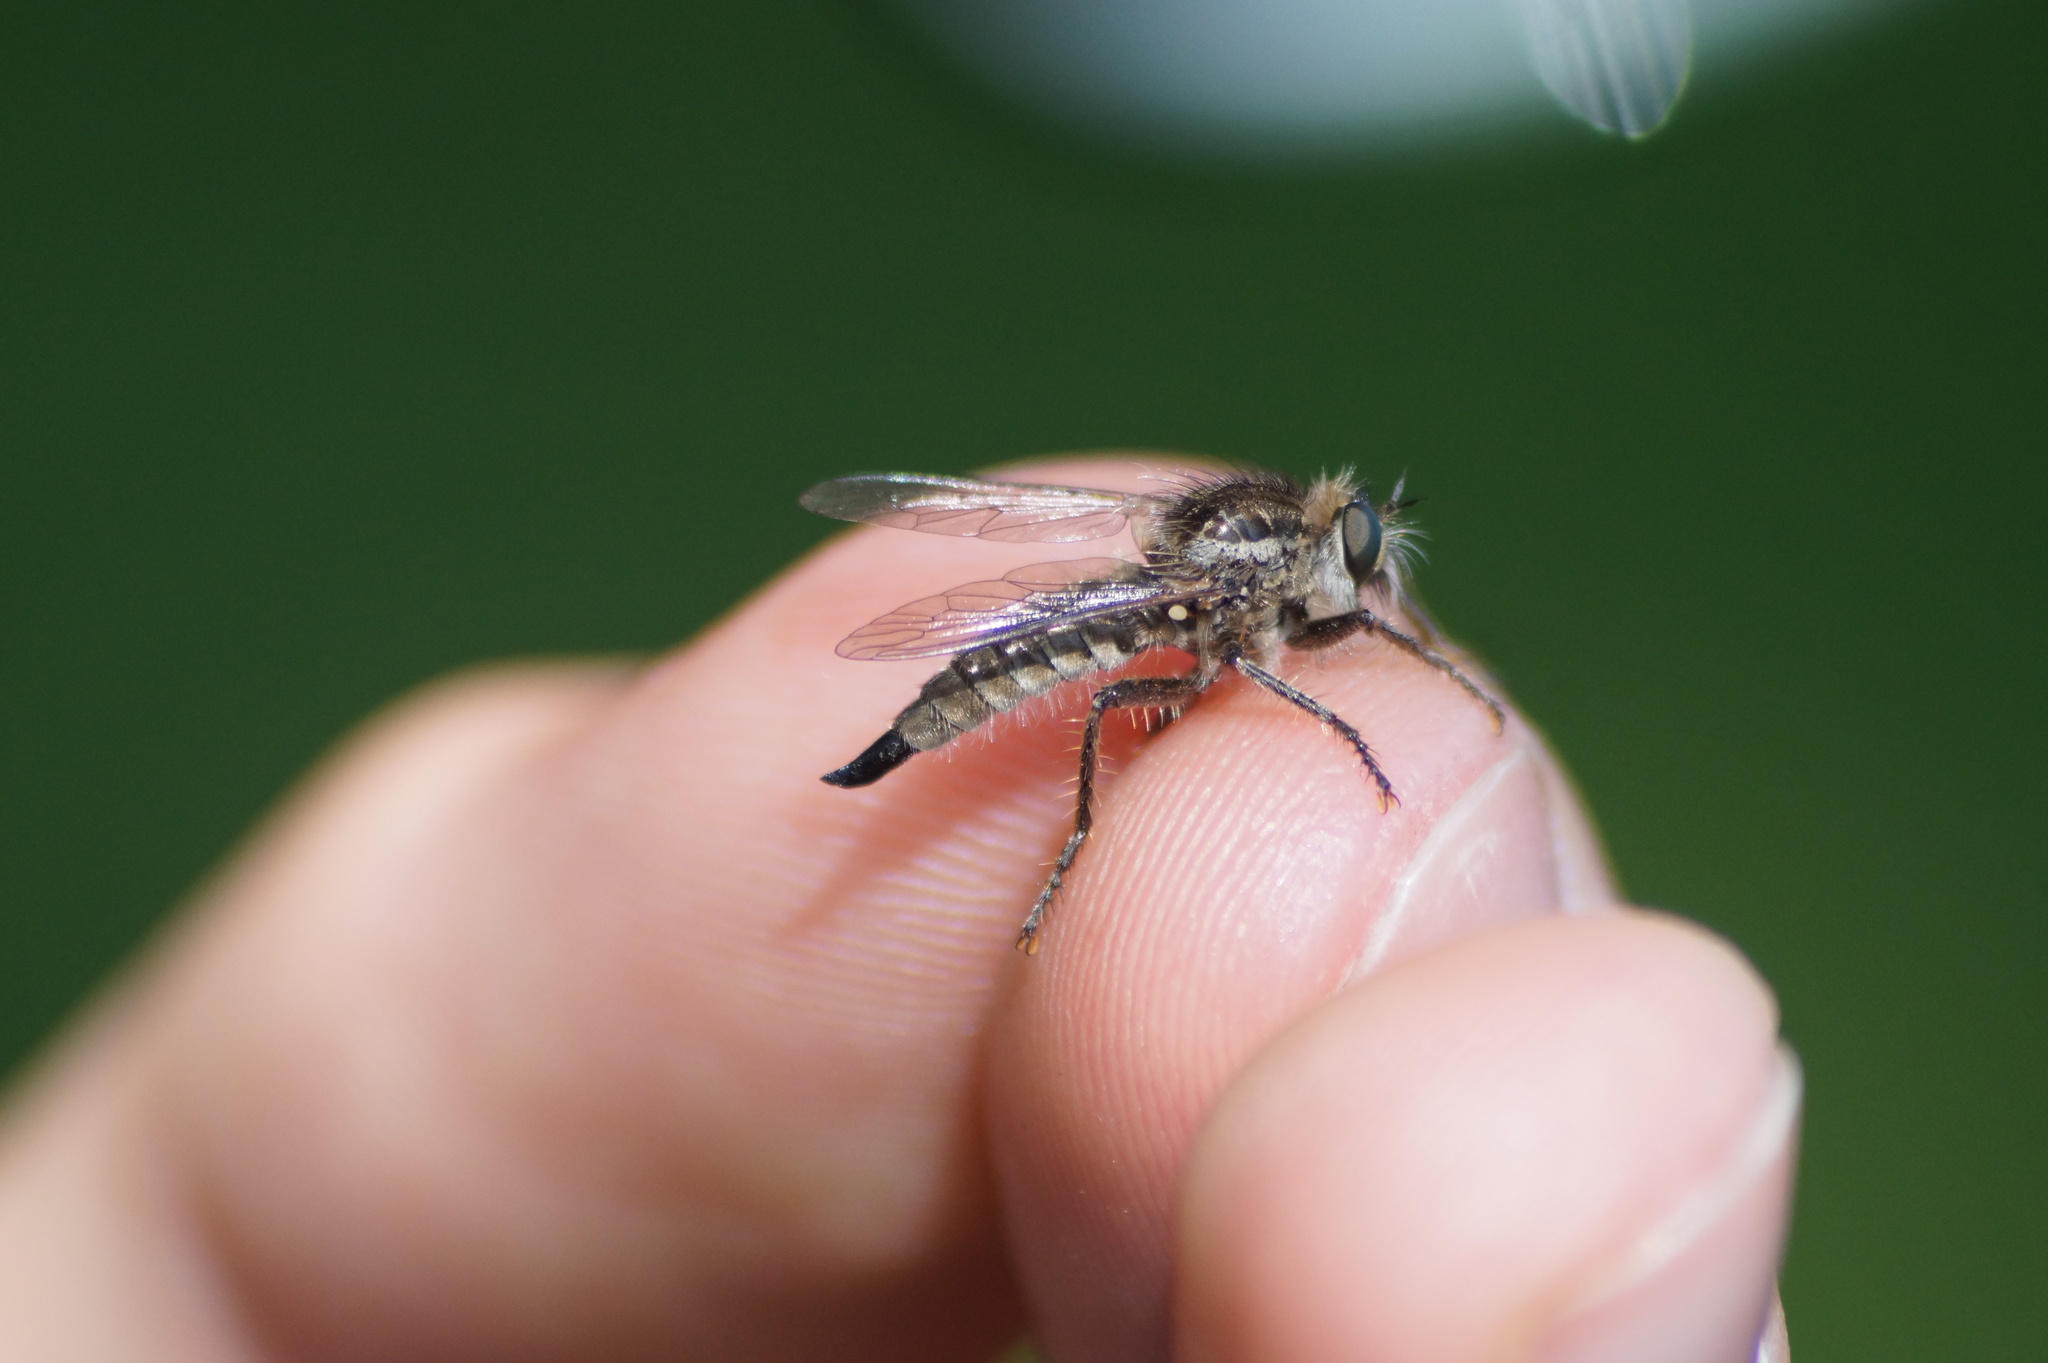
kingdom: Animalia
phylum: Arthropoda
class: Insecta
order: Diptera
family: Asilidae
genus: Dysmachus
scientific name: Dysmachus trigonus
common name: Fan-bristled robberfly
